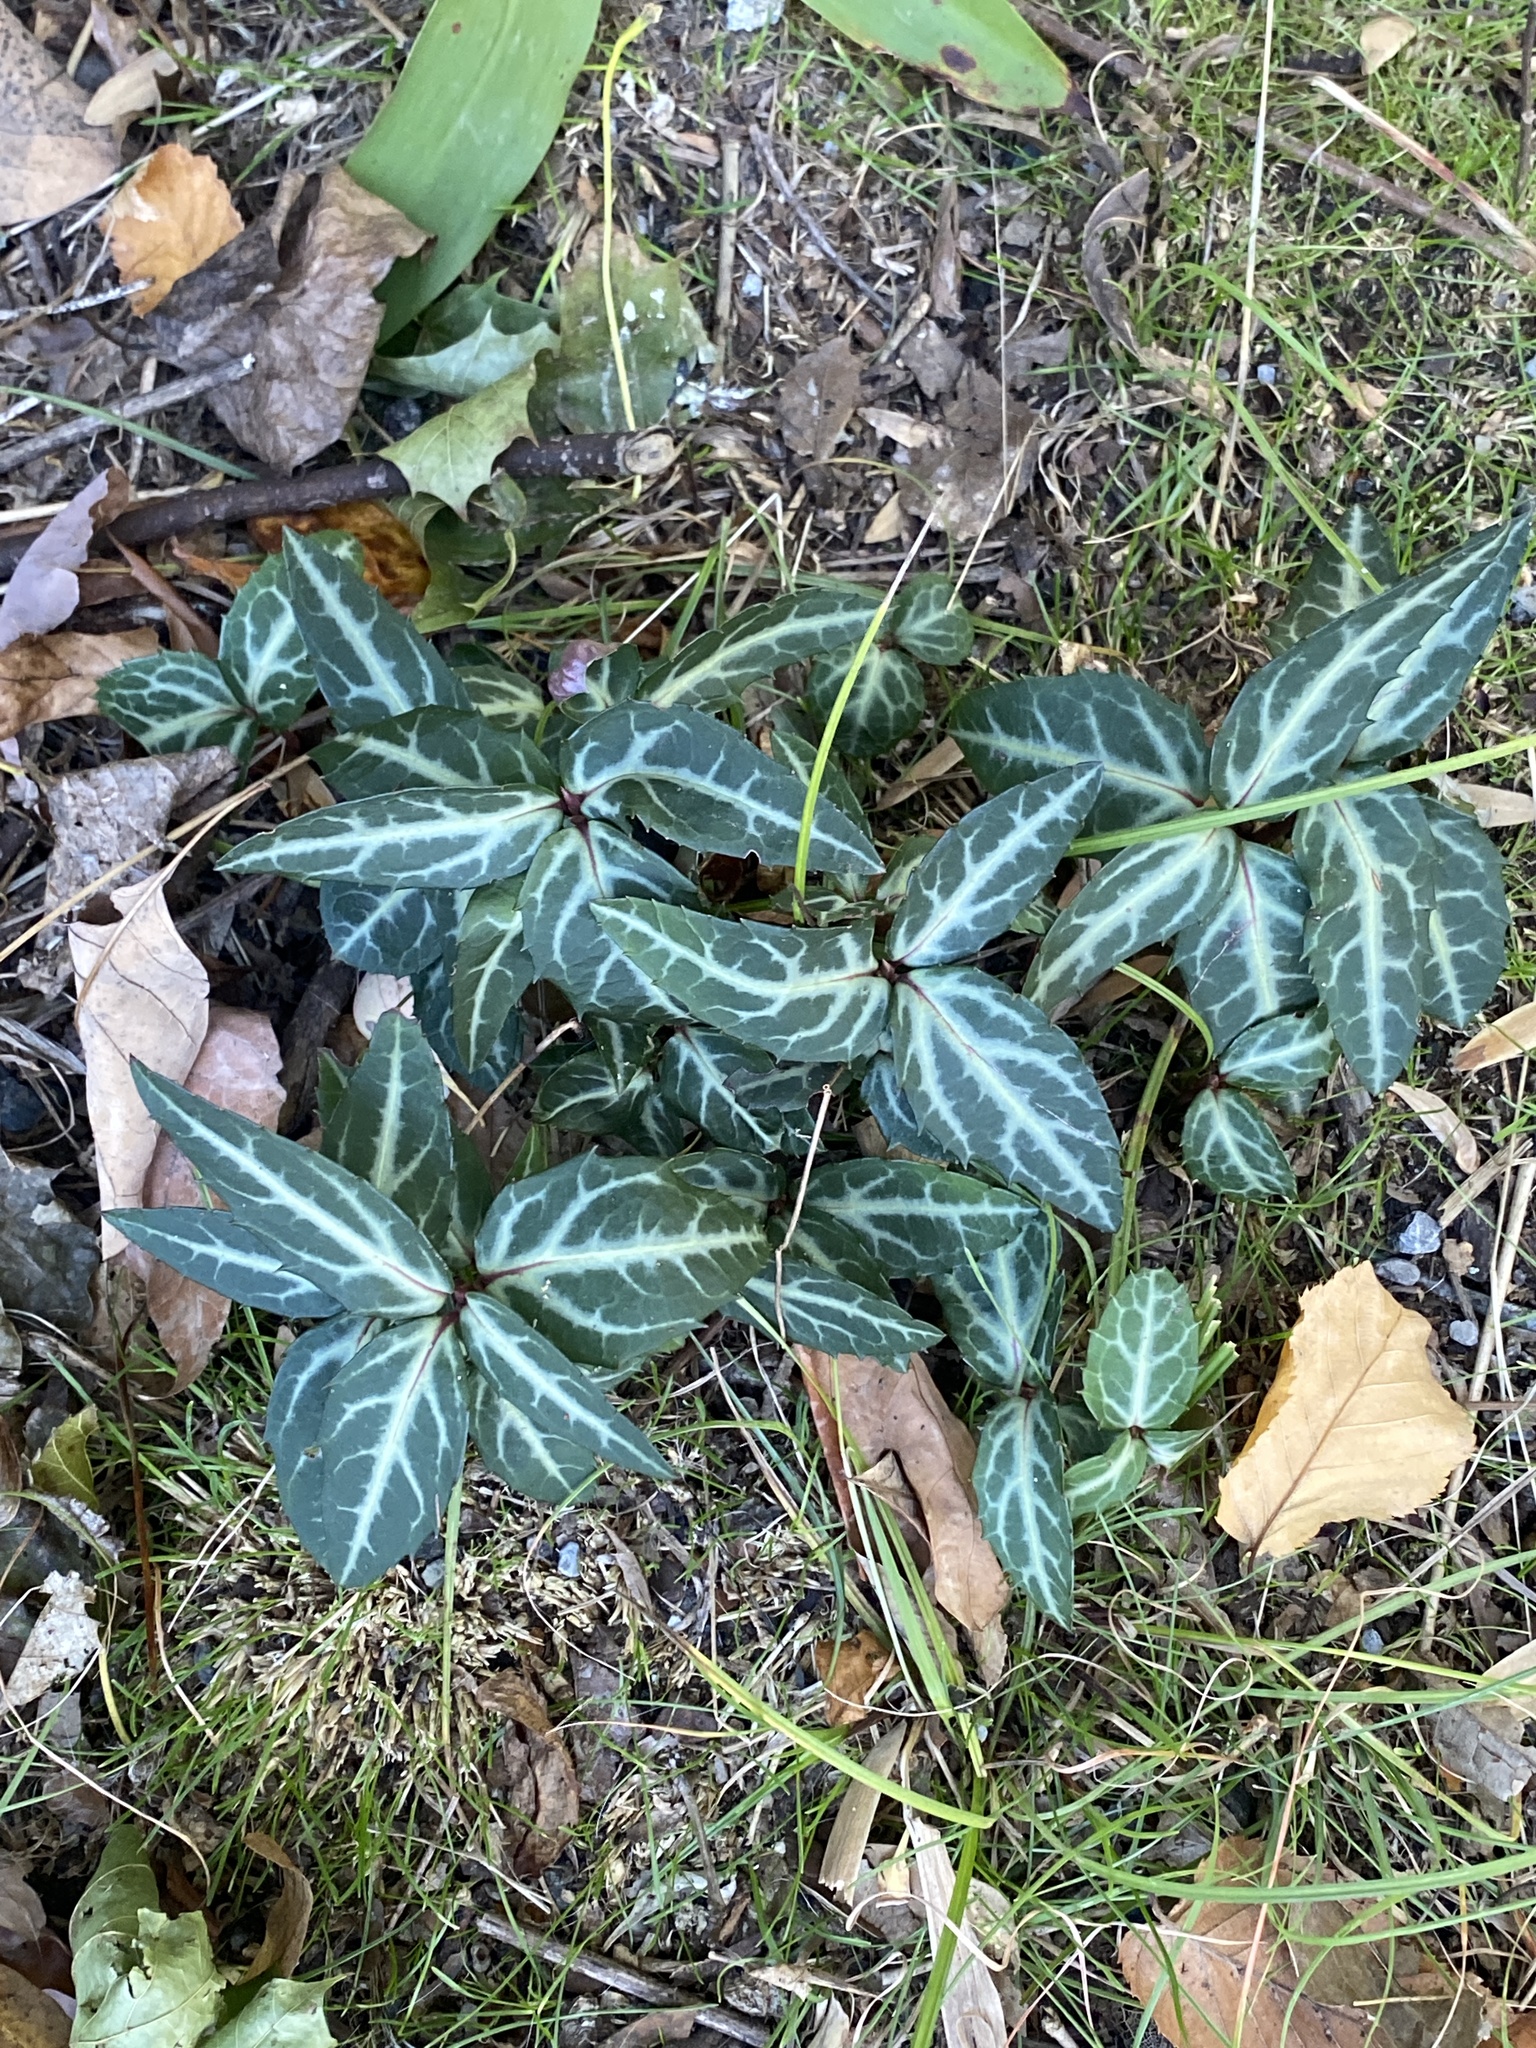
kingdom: Plantae
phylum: Tracheophyta
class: Magnoliopsida
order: Ericales
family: Ericaceae
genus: Chimaphila
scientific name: Chimaphila maculata
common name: Spotted pipsissewa
